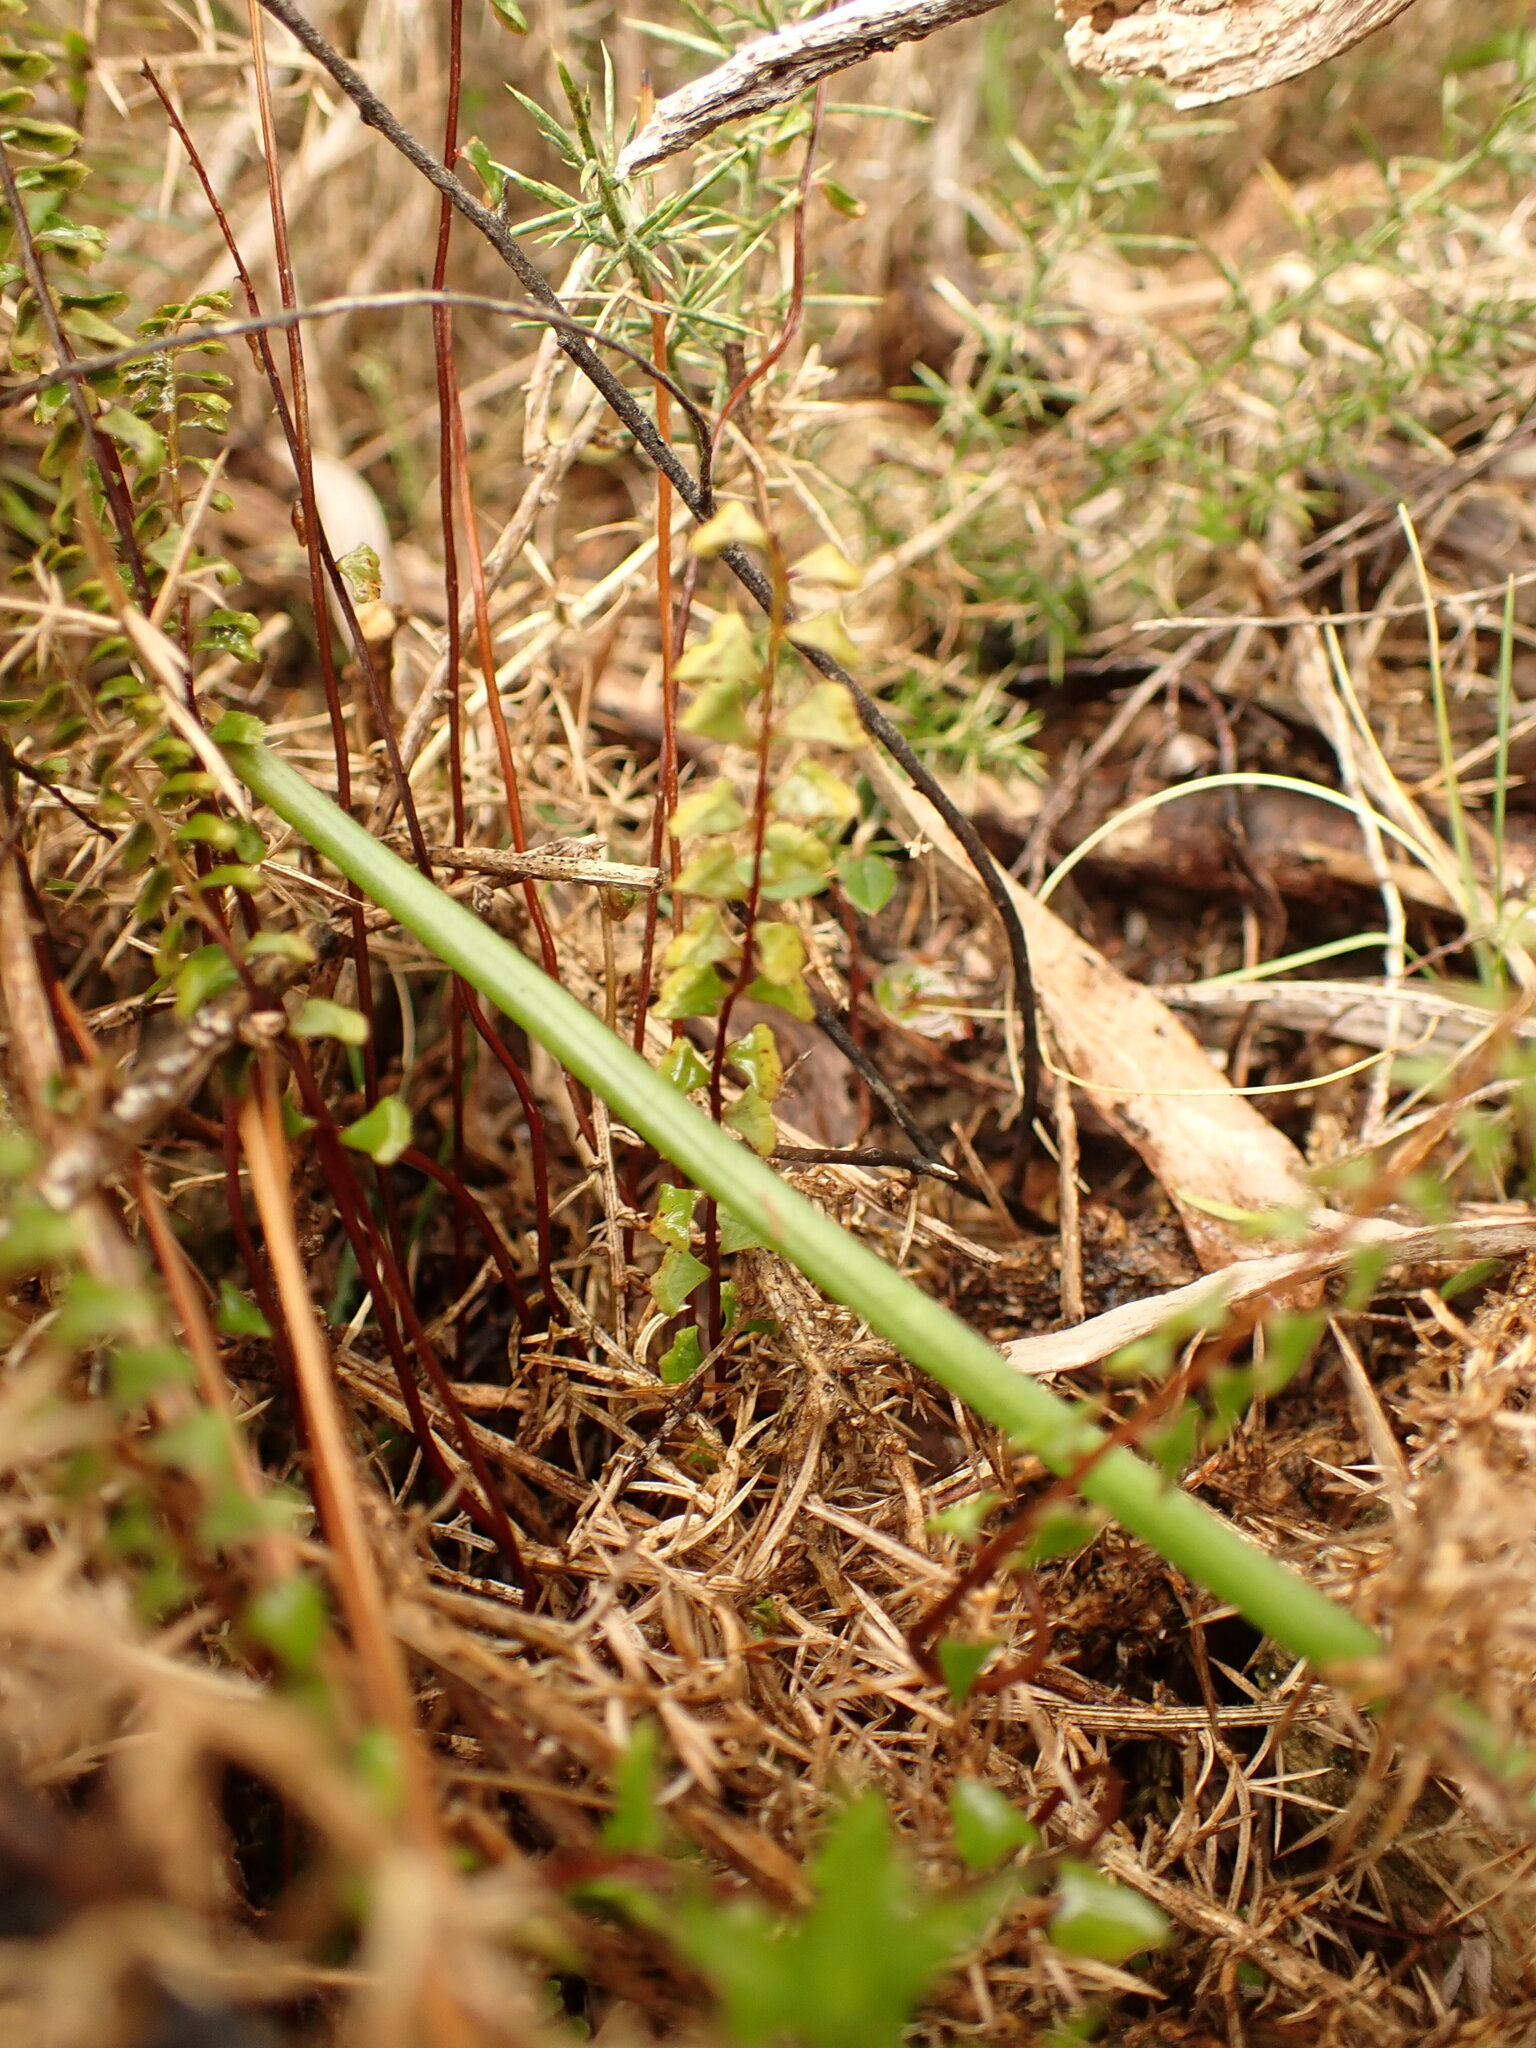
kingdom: Plantae
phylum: Tracheophyta
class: Polypodiopsida
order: Polypodiales
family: Lindsaeaceae
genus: Lindsaea
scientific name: Lindsaea linearis
